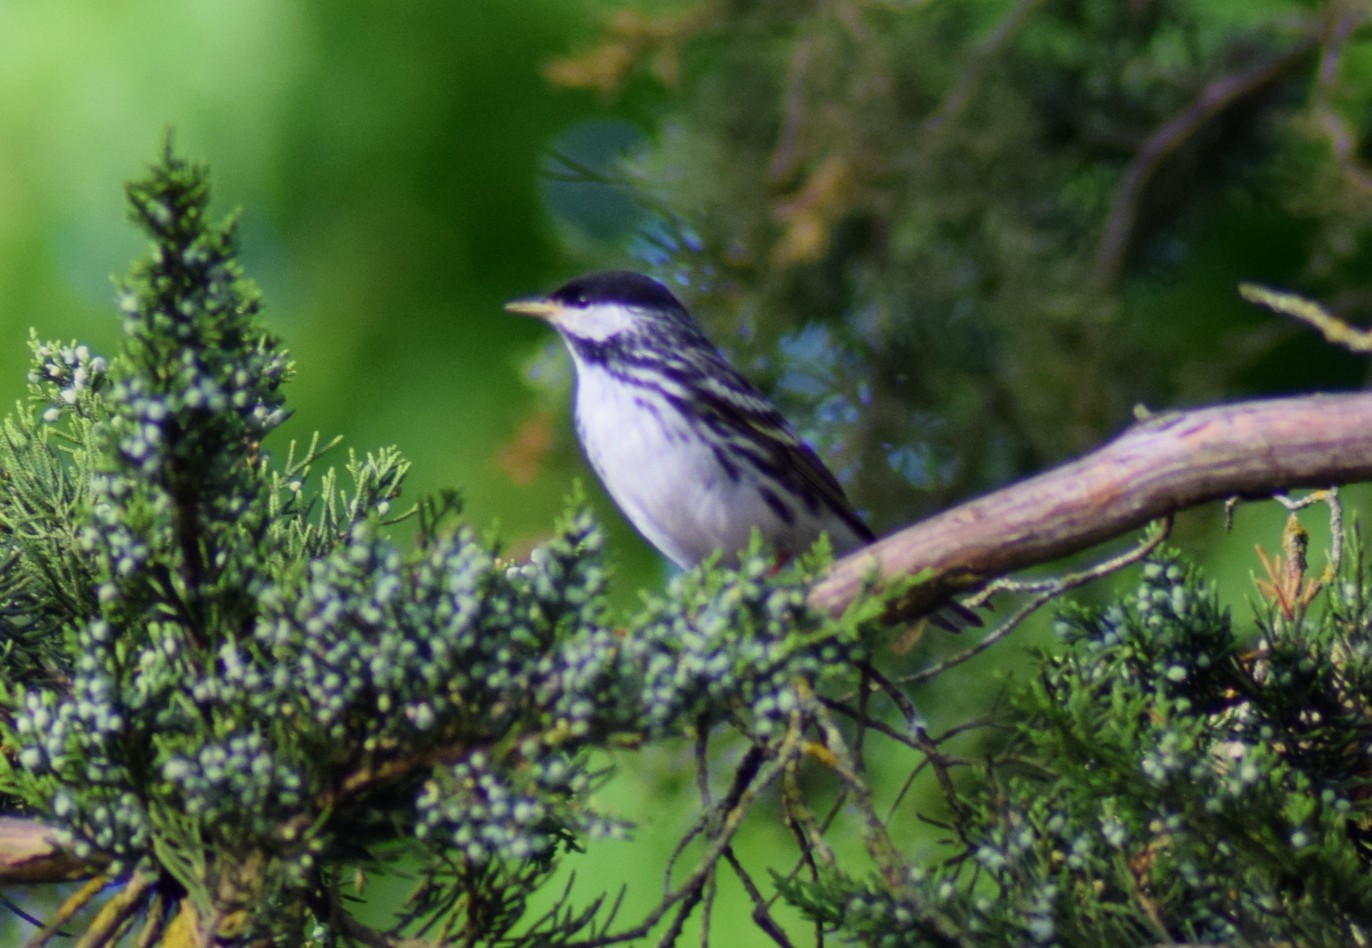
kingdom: Animalia
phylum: Chordata
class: Aves
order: Passeriformes
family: Parulidae
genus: Setophaga
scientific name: Setophaga striata
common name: Blackpoll warbler
